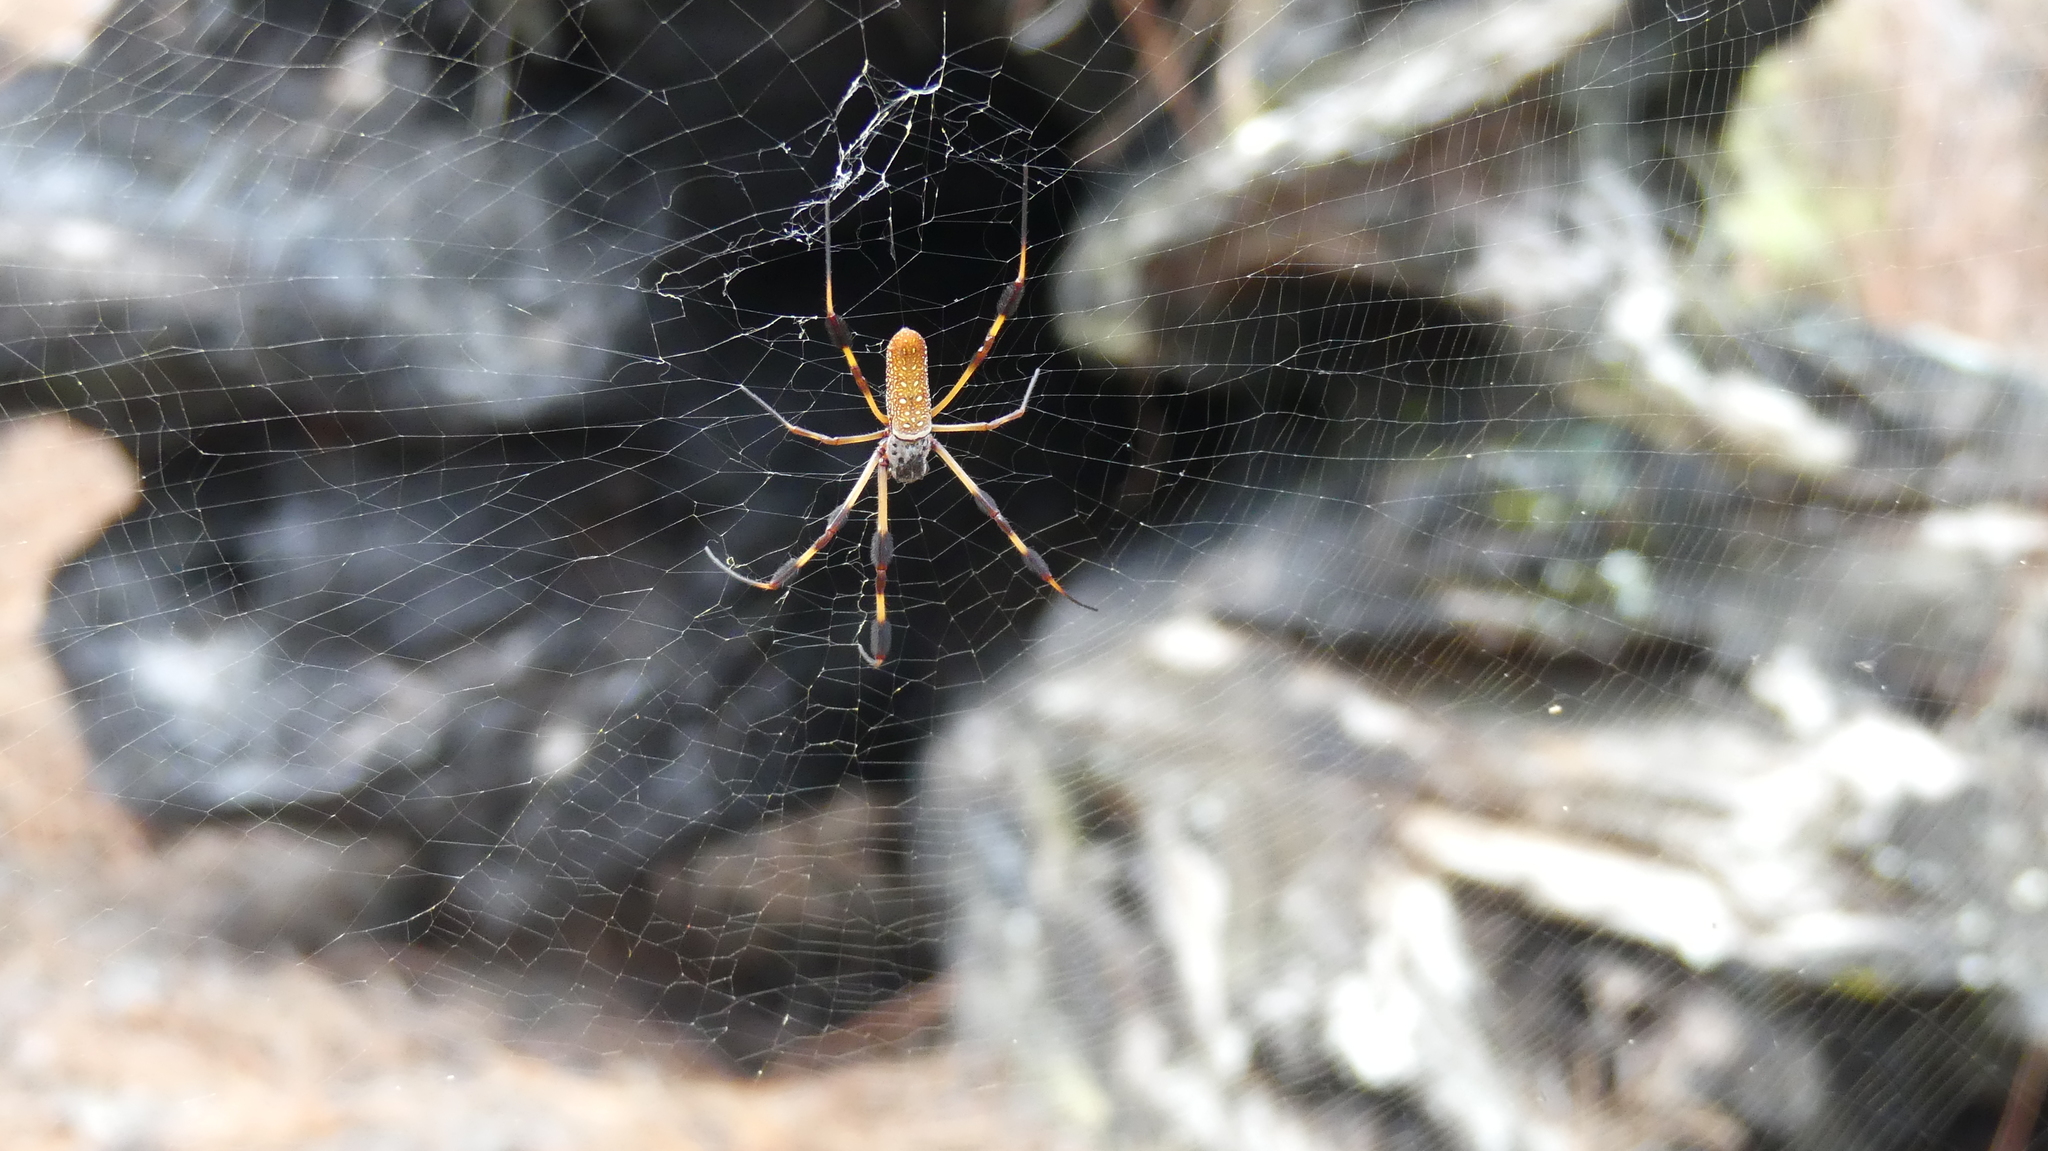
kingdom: Animalia
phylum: Arthropoda
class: Arachnida
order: Araneae
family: Araneidae
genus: Trichonephila
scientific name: Trichonephila clavipes
